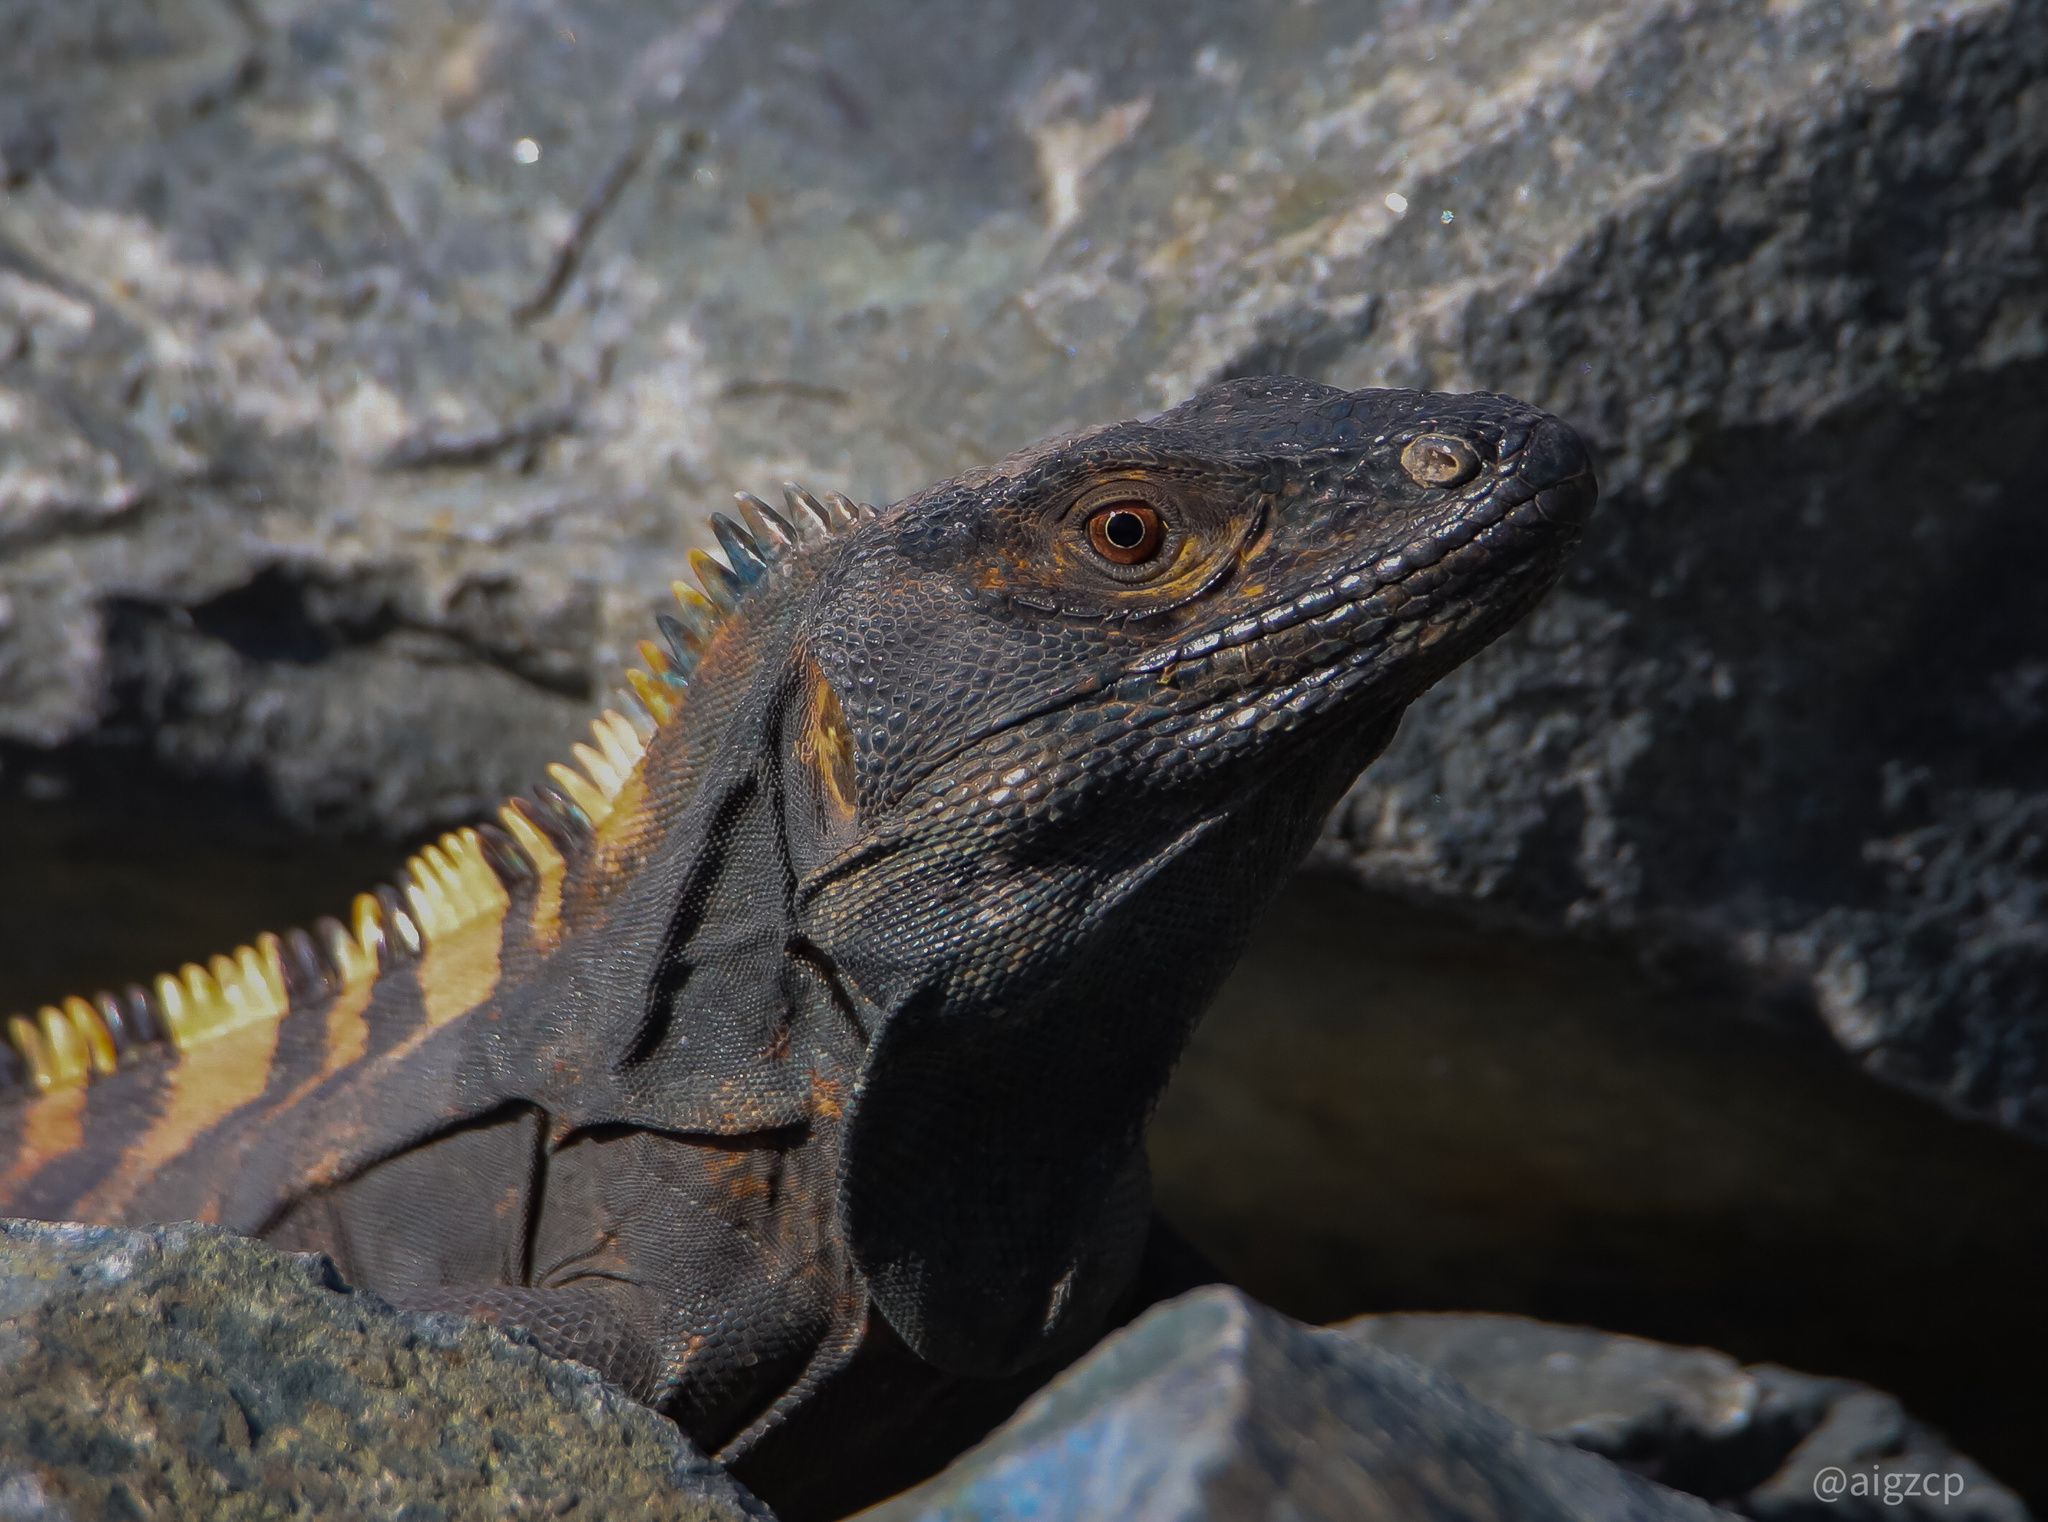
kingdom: Animalia
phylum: Chordata
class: Squamata
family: Iguanidae
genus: Ctenosaura
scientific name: Ctenosaura similis
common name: Black spiny-tailed iguana
